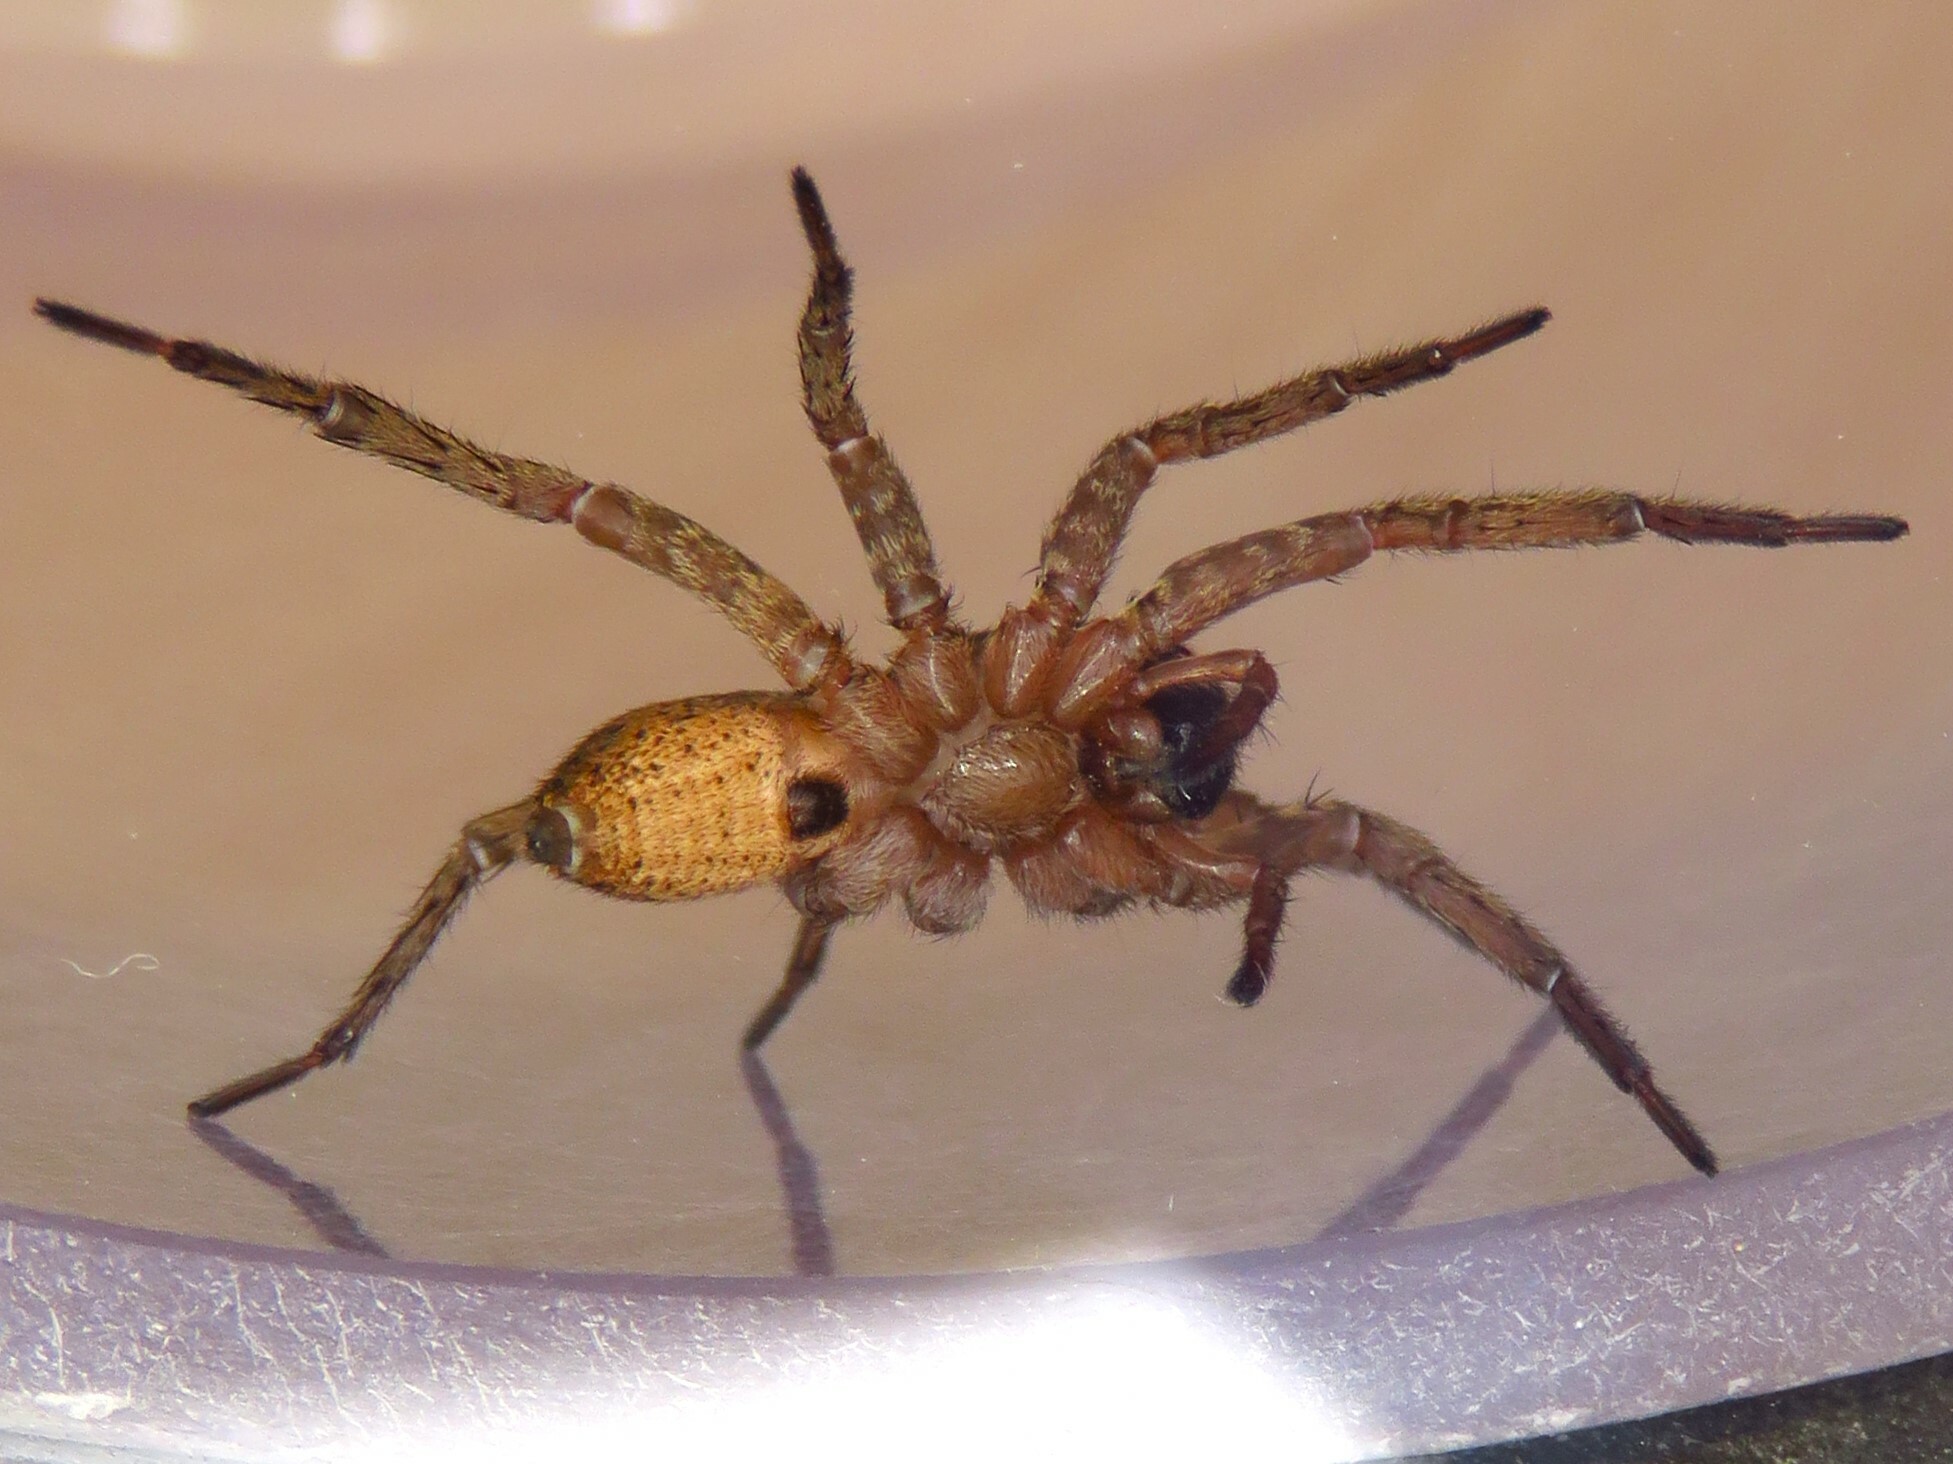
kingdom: Animalia
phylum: Arthropoda
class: Arachnida
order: Araneae
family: Lycosidae
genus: Varacosa
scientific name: Varacosa shenandoa
